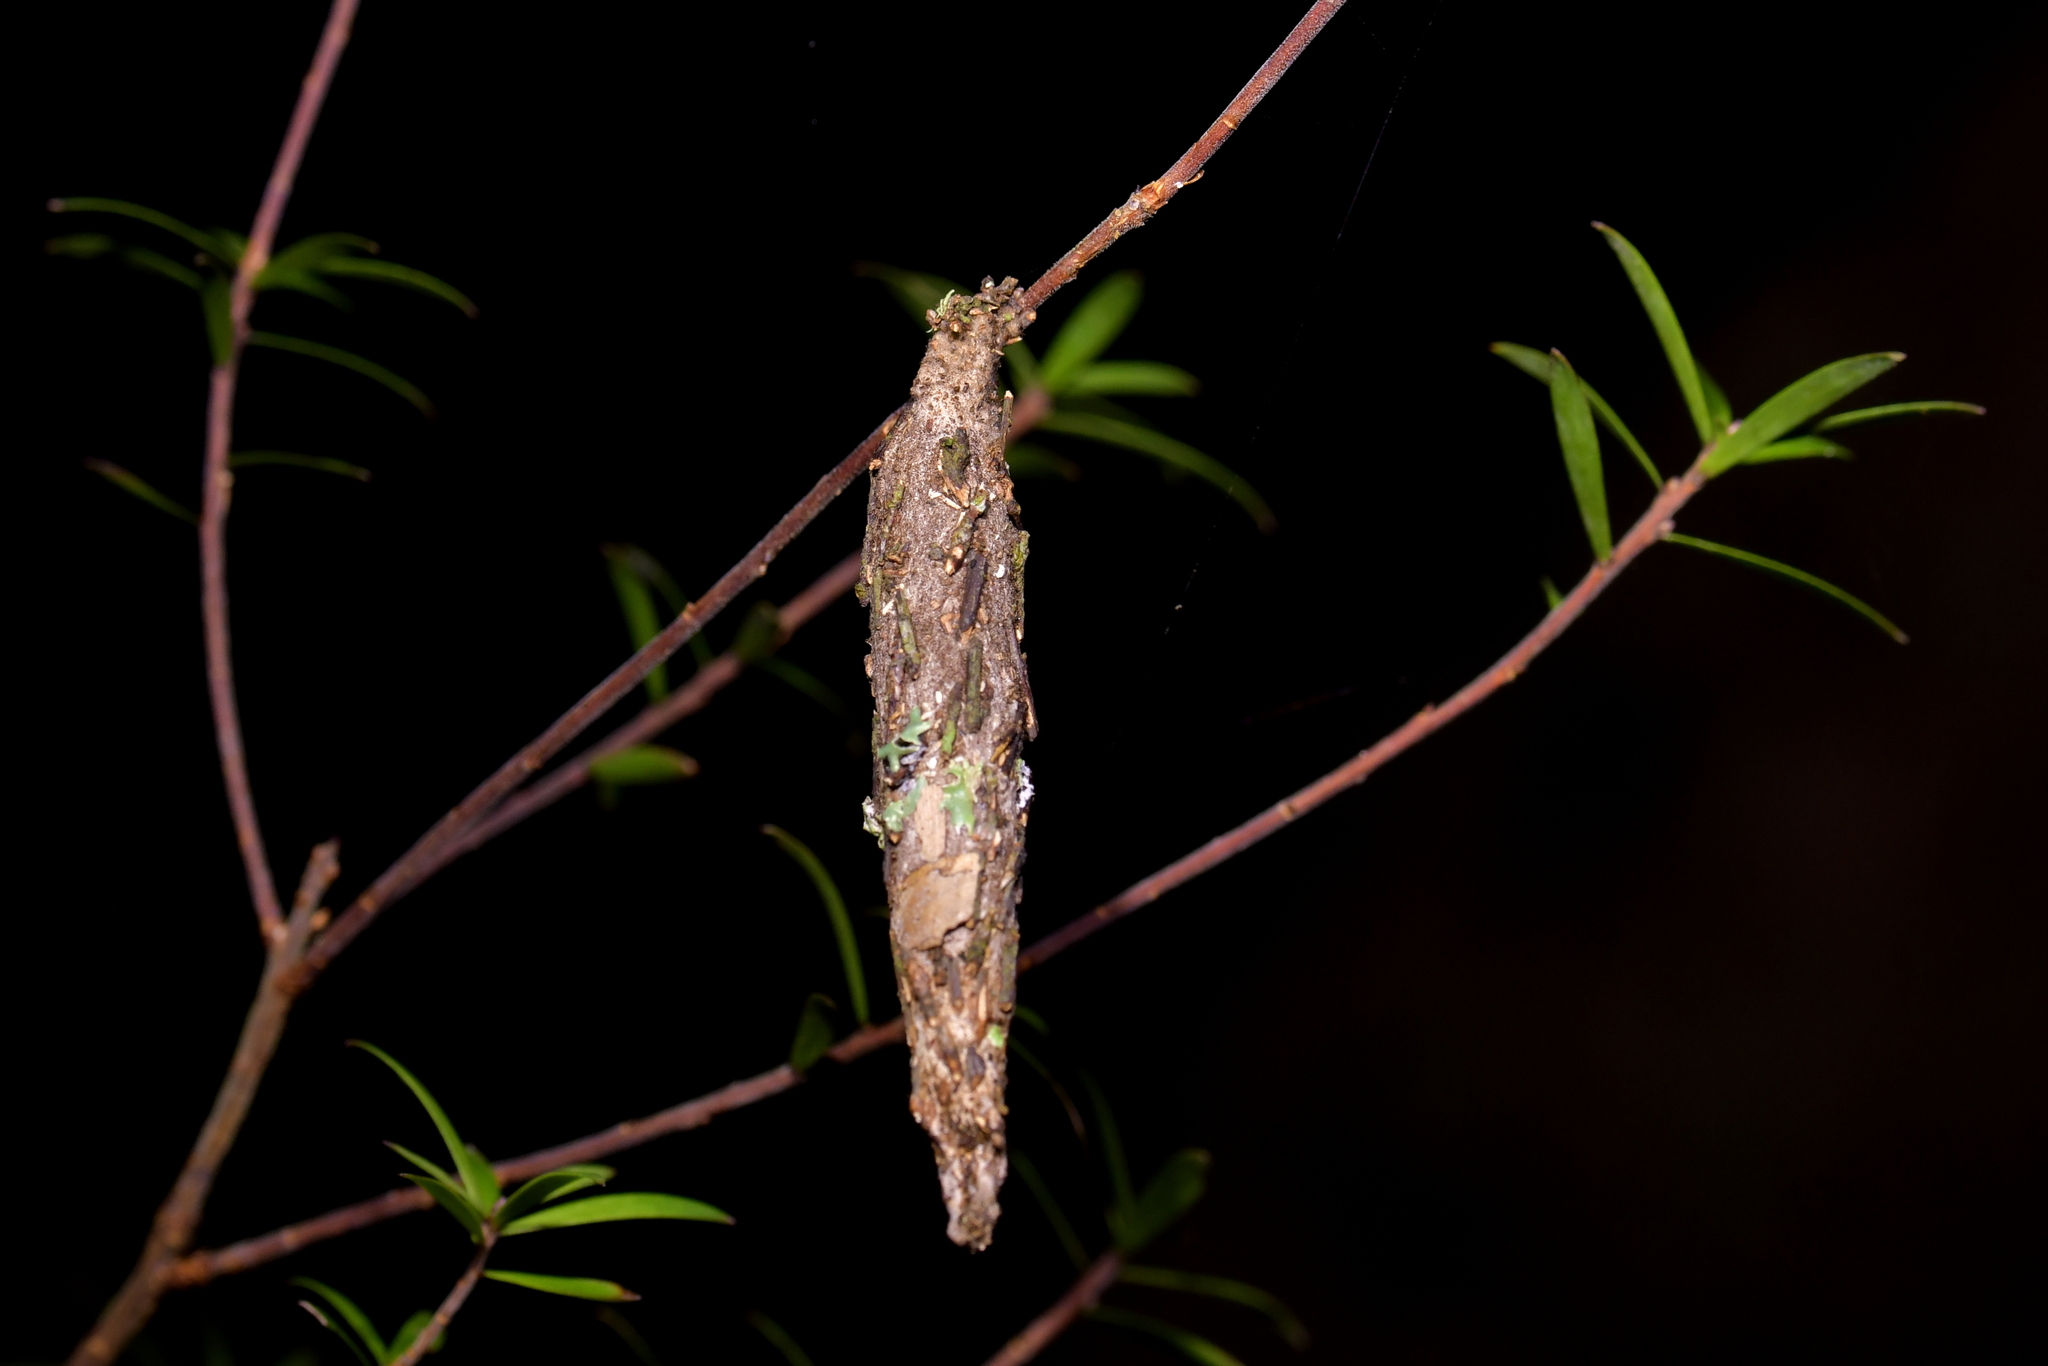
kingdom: Animalia
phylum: Arthropoda
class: Insecta
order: Lepidoptera
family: Psychidae
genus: Liothula
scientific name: Liothula omnivora
